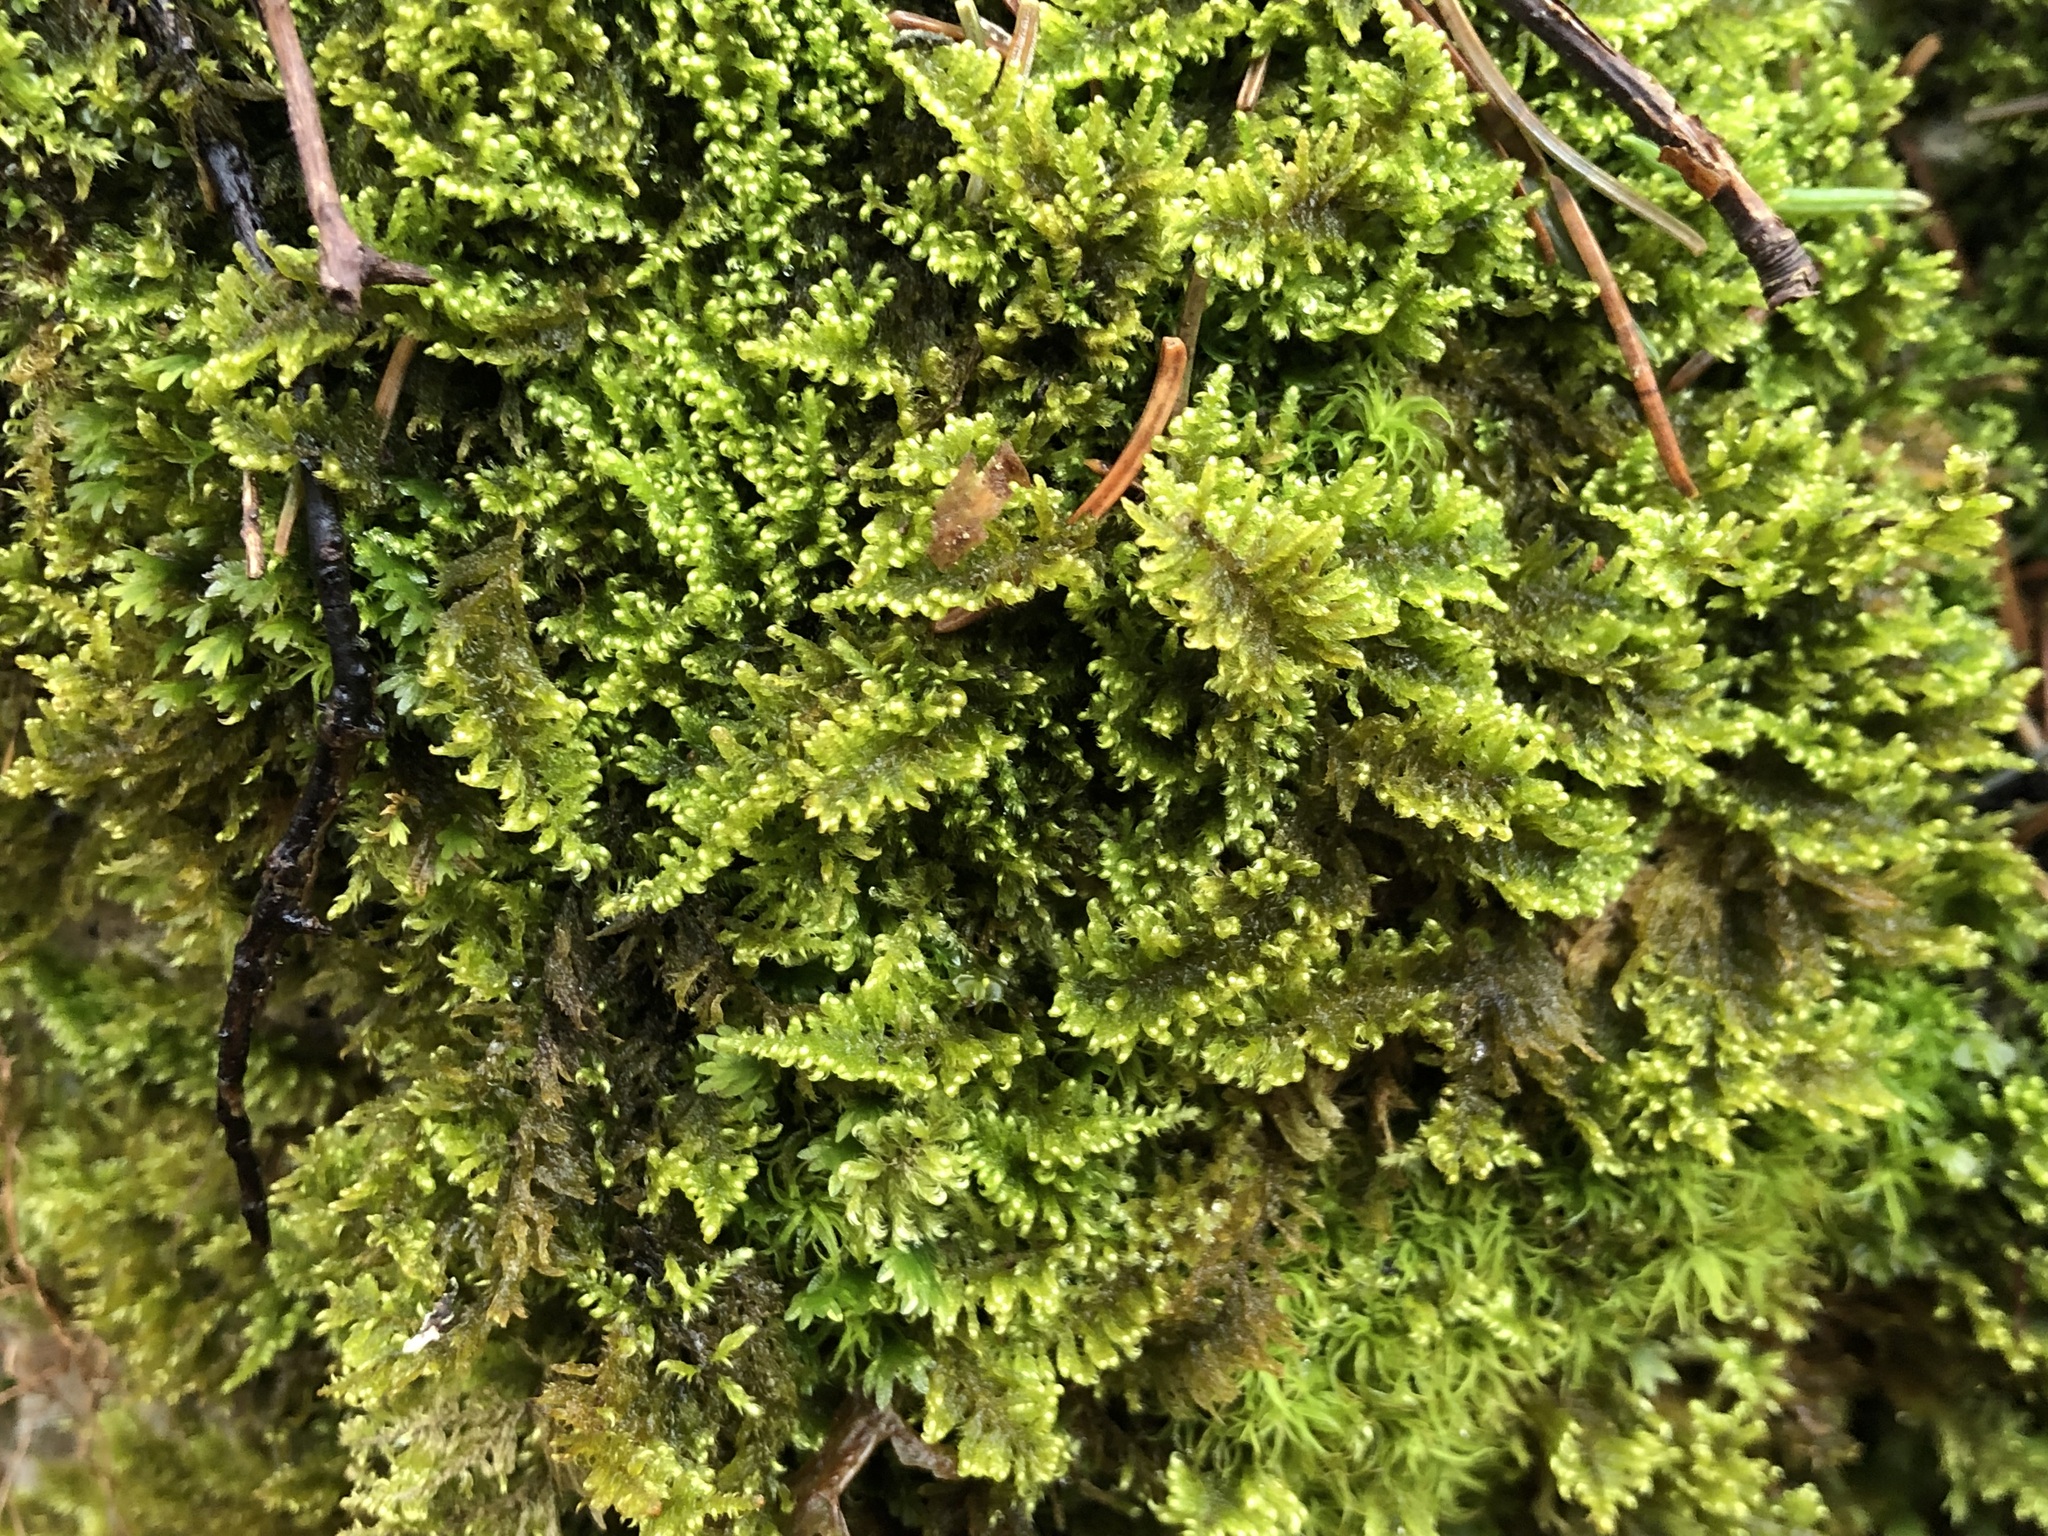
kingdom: Plantae
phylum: Bryophyta
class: Bryopsida
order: Hypnales
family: Myuriaceae
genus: Ctenidium
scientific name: Ctenidium molluscum
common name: Chalk comb-moss
